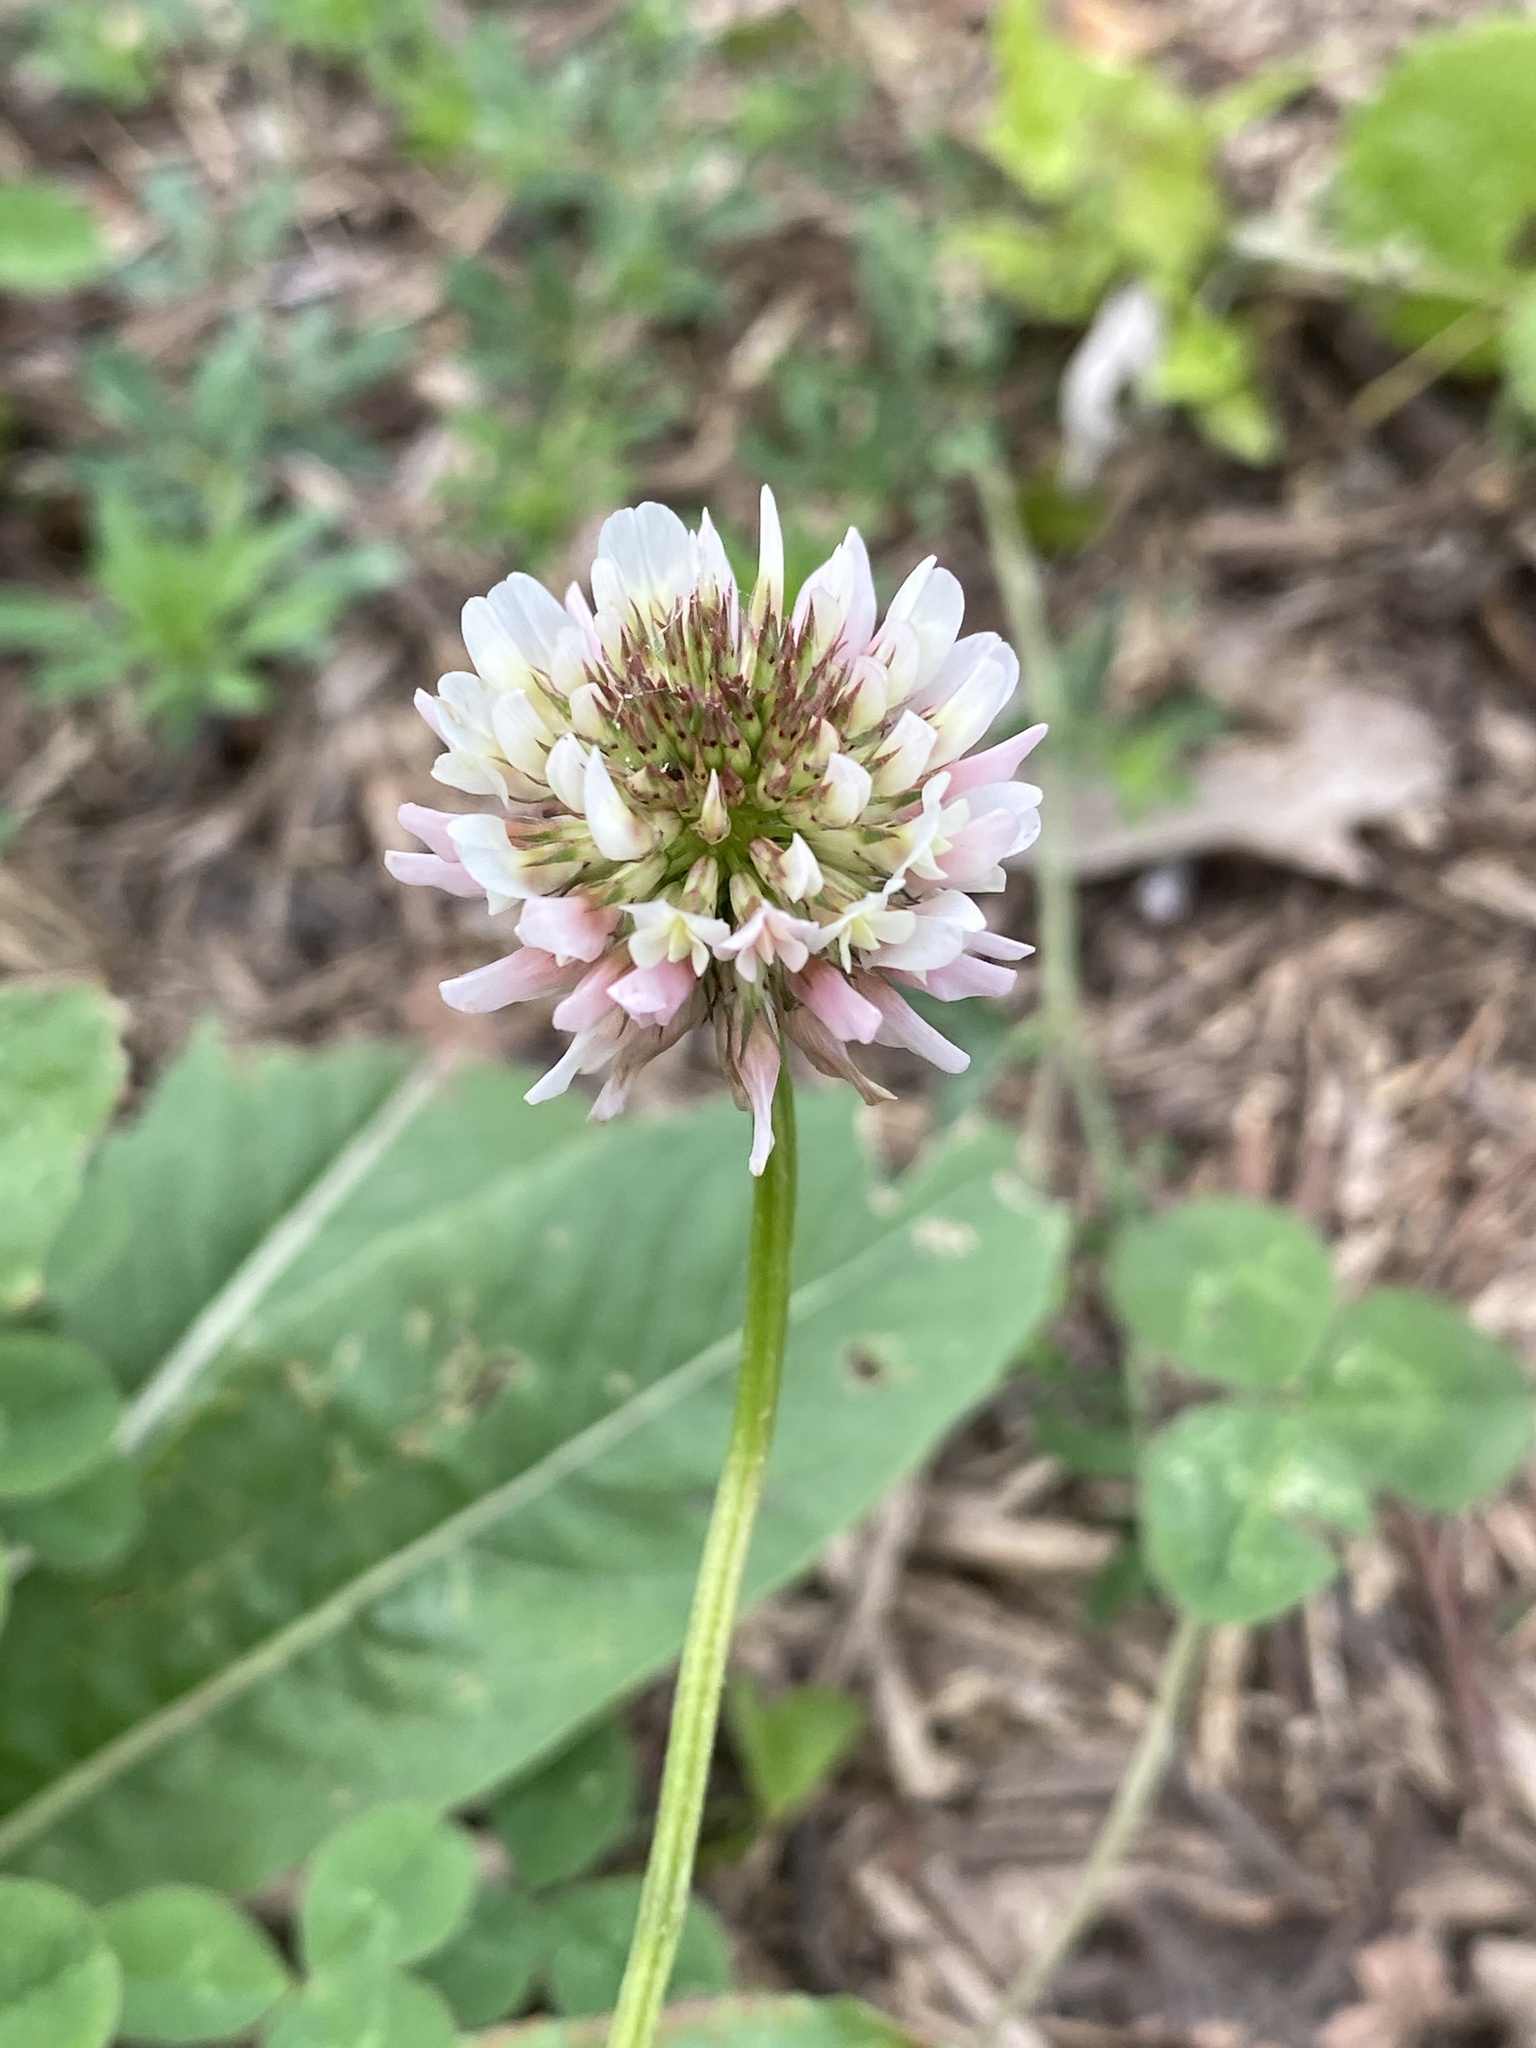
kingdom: Plantae
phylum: Tracheophyta
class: Magnoliopsida
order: Fabales
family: Fabaceae
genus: Trifolium
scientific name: Trifolium repens
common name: White clover
